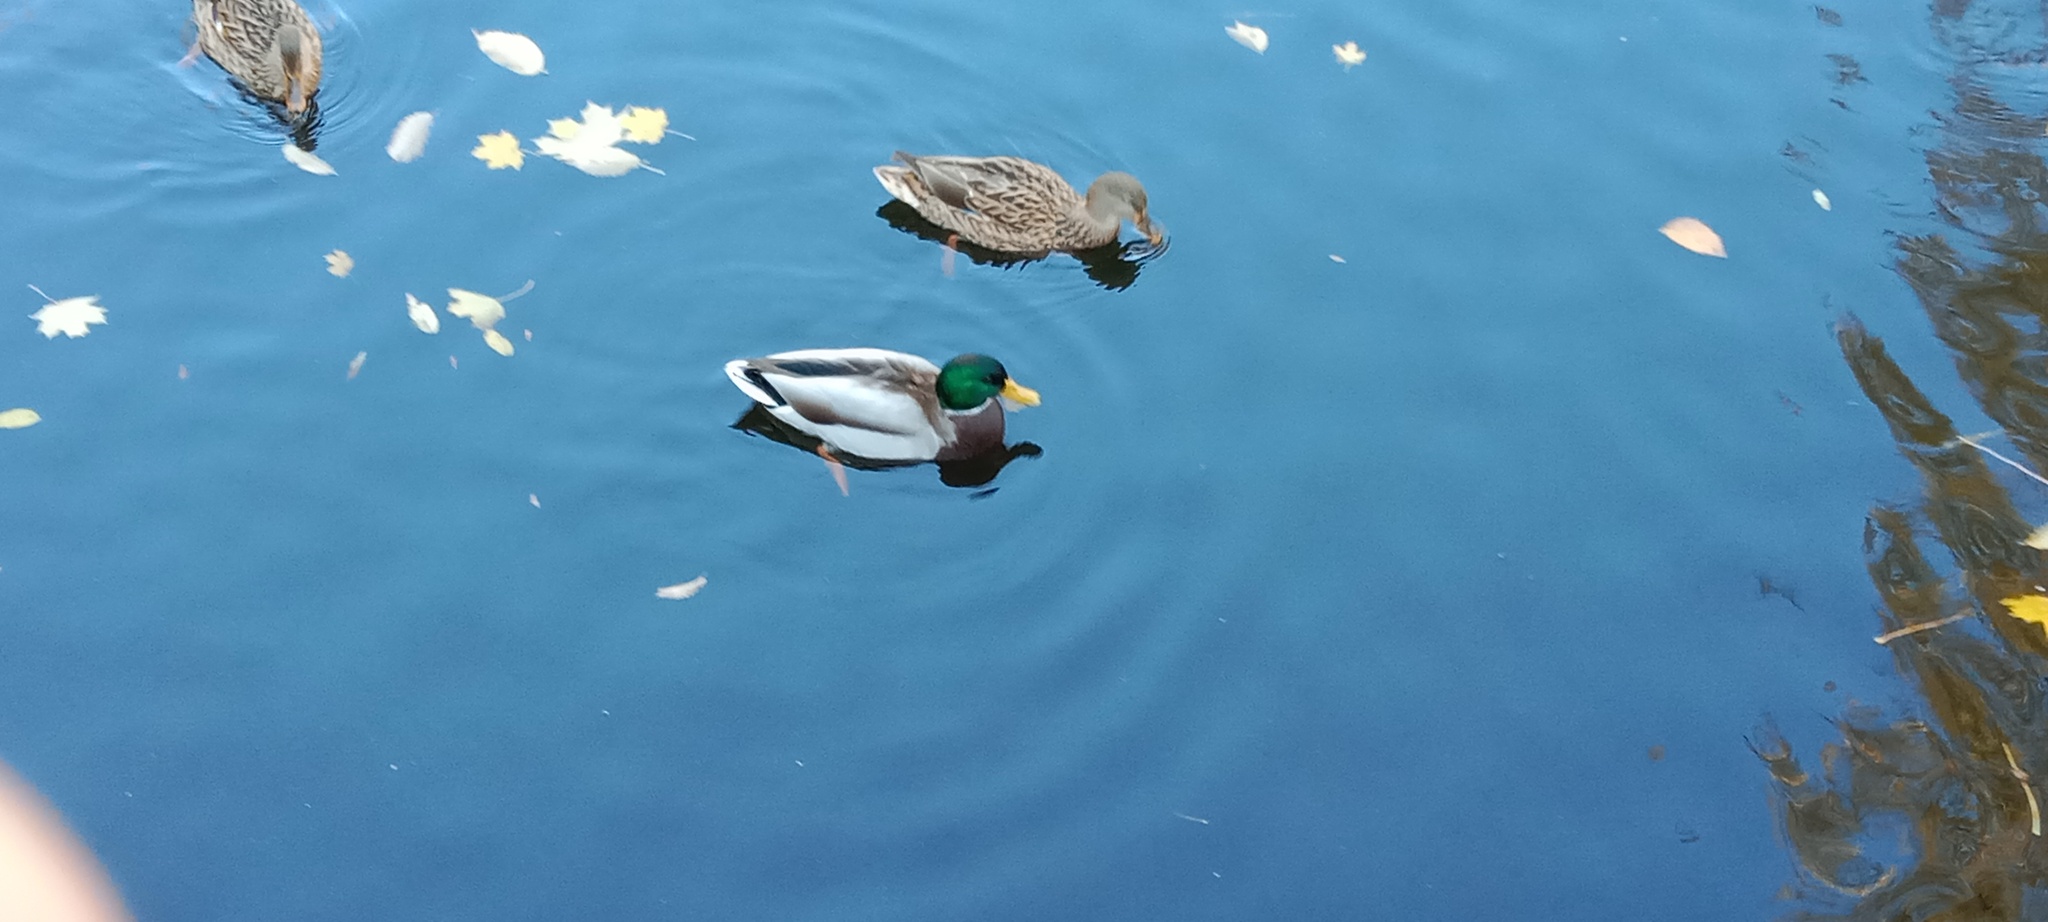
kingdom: Animalia
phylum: Chordata
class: Aves
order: Anseriformes
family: Anatidae
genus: Anas
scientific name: Anas platyrhynchos
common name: Mallard
